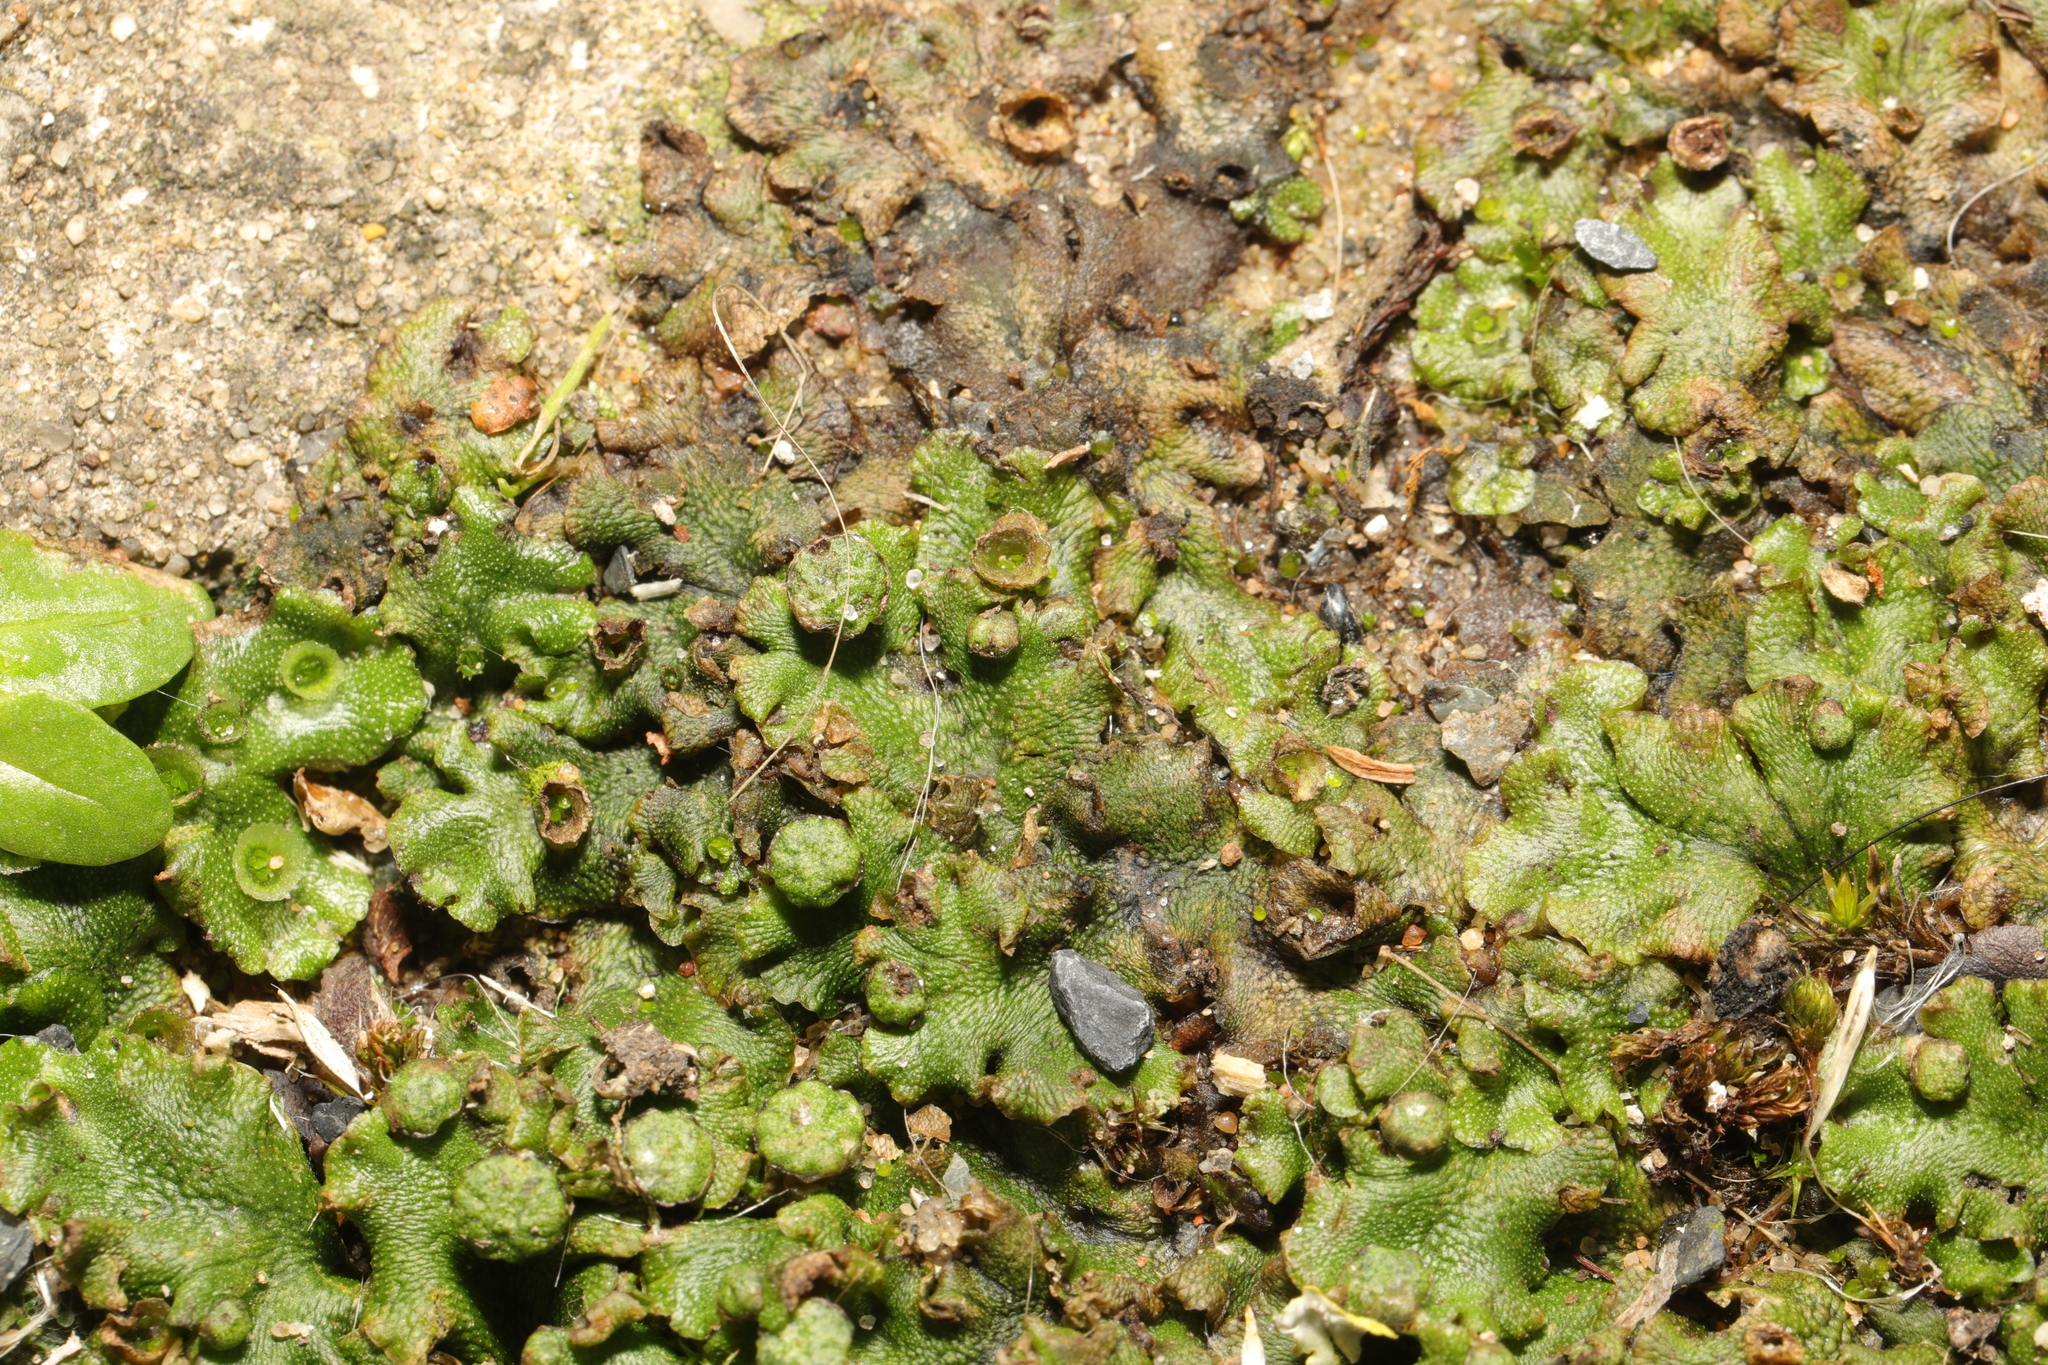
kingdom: Plantae
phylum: Marchantiophyta
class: Marchantiopsida
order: Marchantiales
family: Marchantiaceae
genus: Marchantia
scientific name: Marchantia polymorpha
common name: Common liverwort
